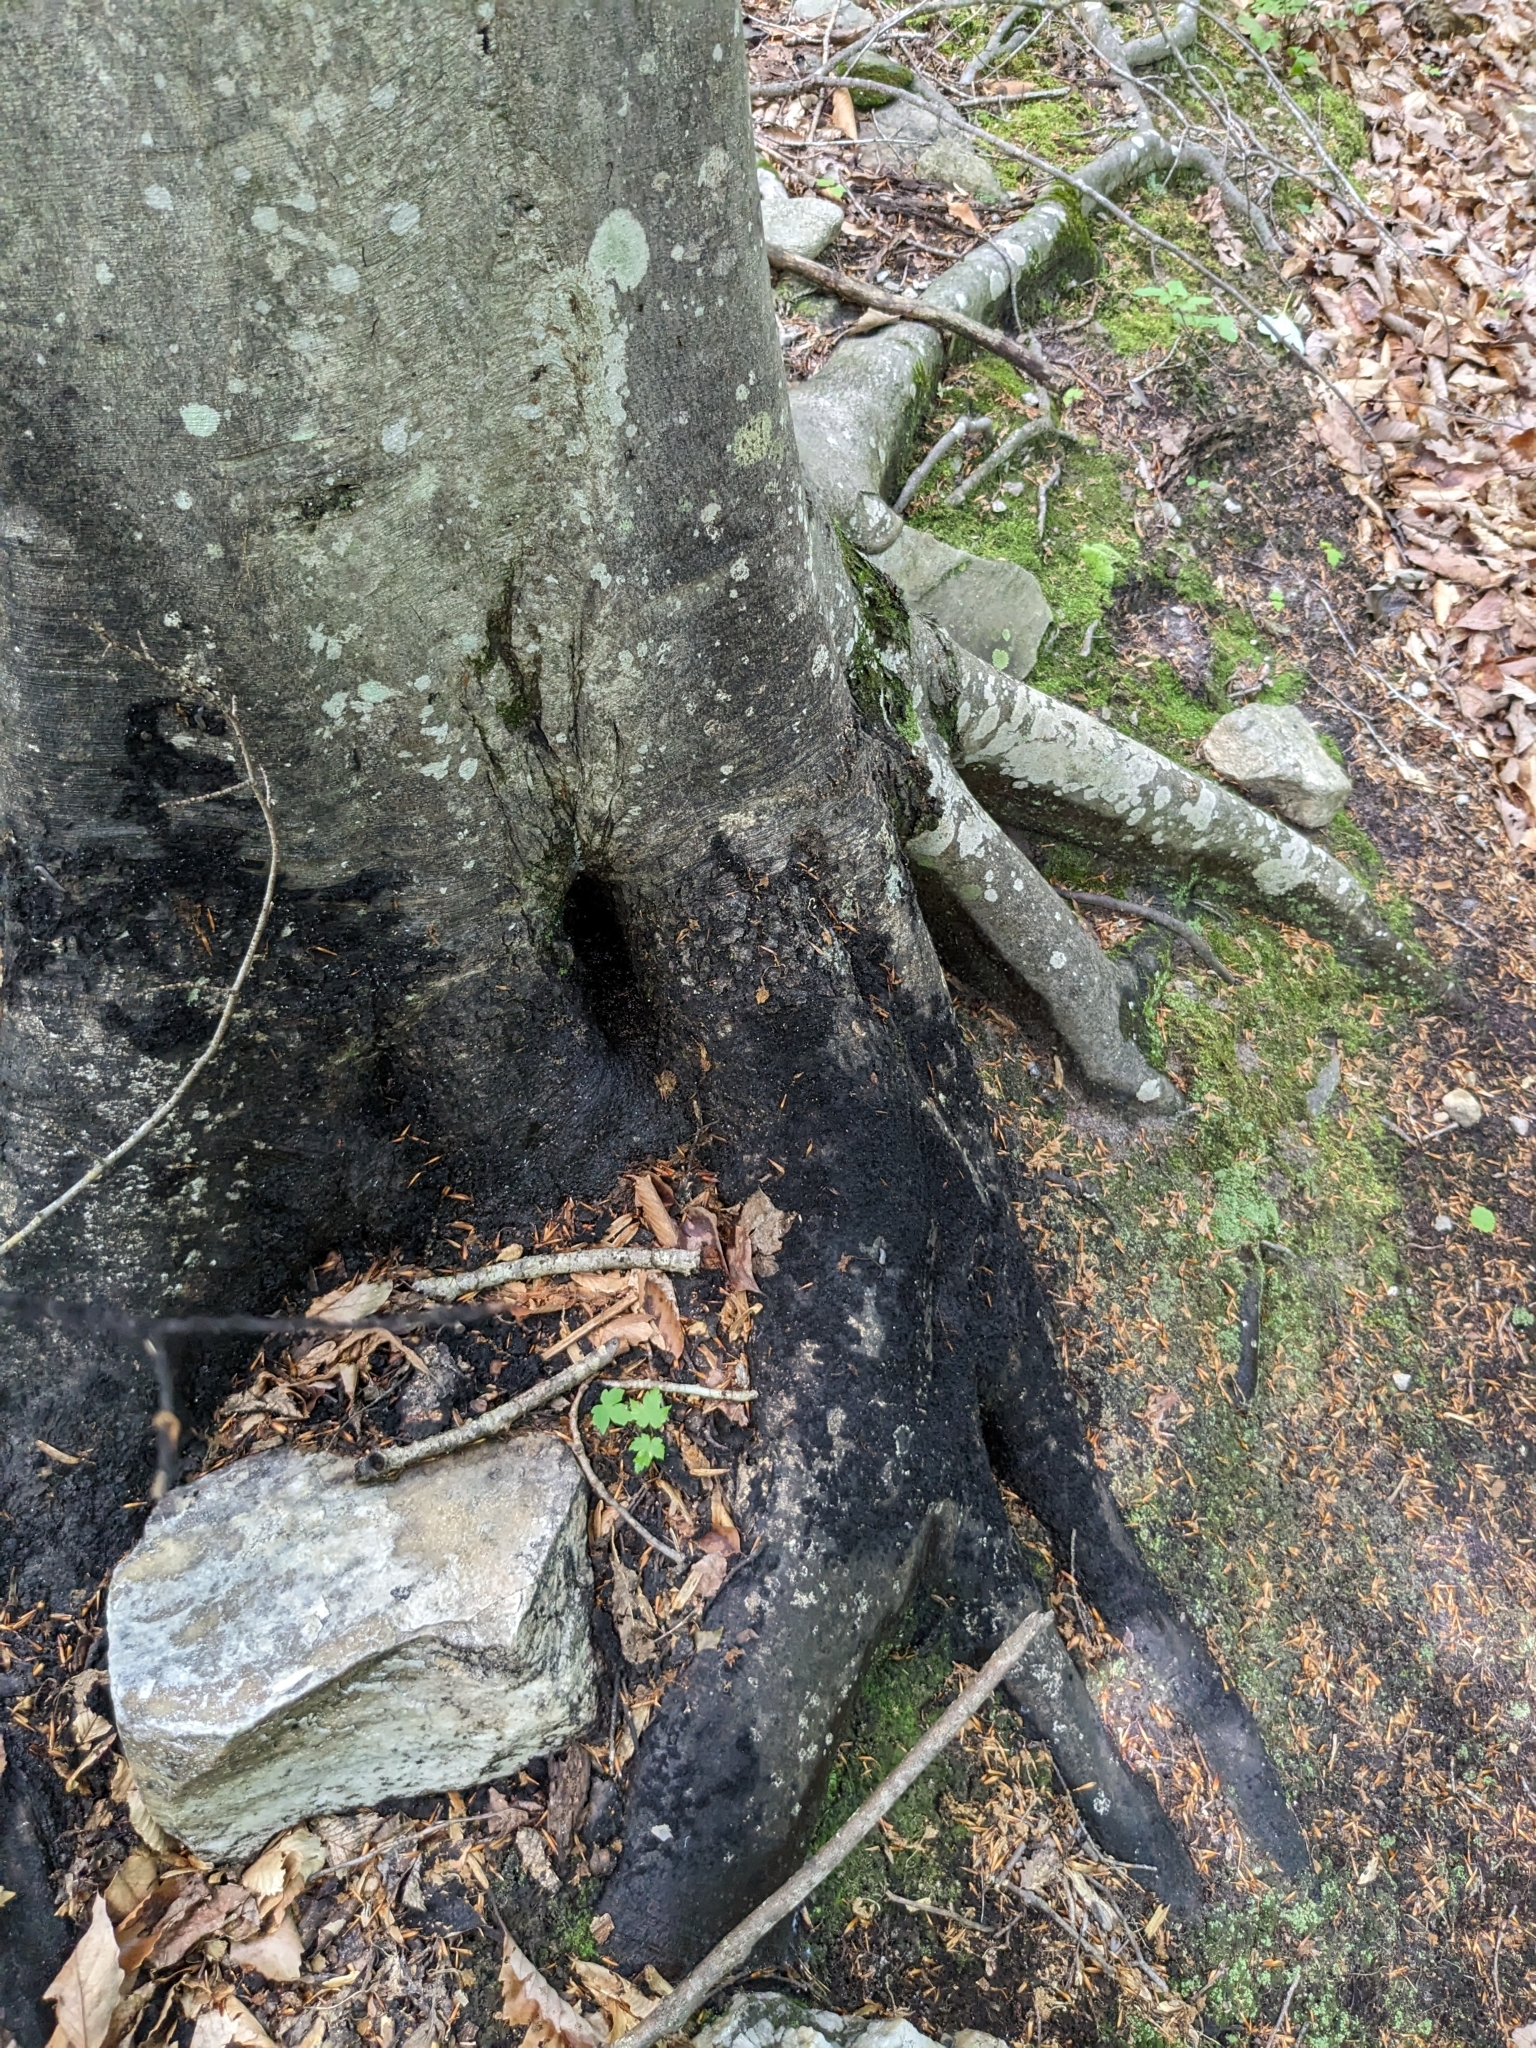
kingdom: Fungi
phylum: Ascomycota
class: Dothideomycetes
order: Capnodiales
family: Capnodiaceae
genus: Scorias
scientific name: Scorias spongiosa
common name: Black sooty mold
